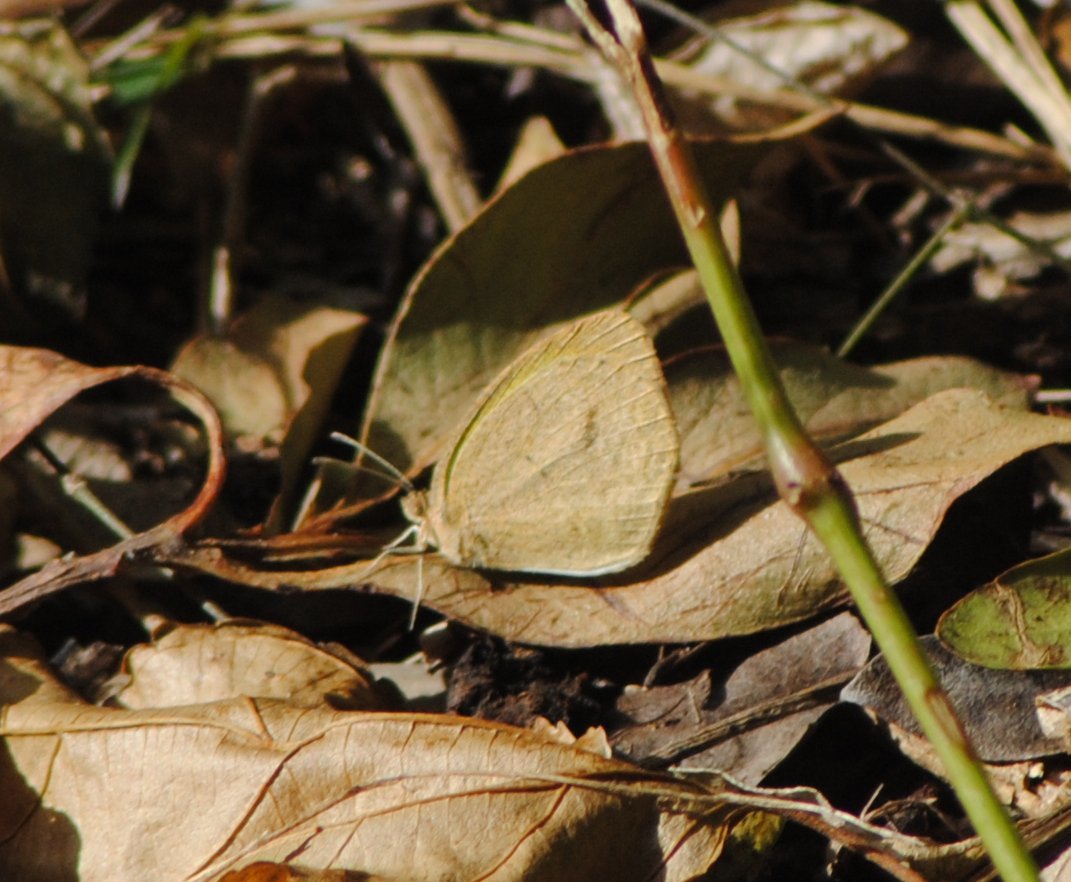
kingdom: Animalia
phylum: Arthropoda
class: Insecta
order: Lepidoptera
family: Pieridae
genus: Eurema
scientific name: Eurema daira
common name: Barred sulphur
